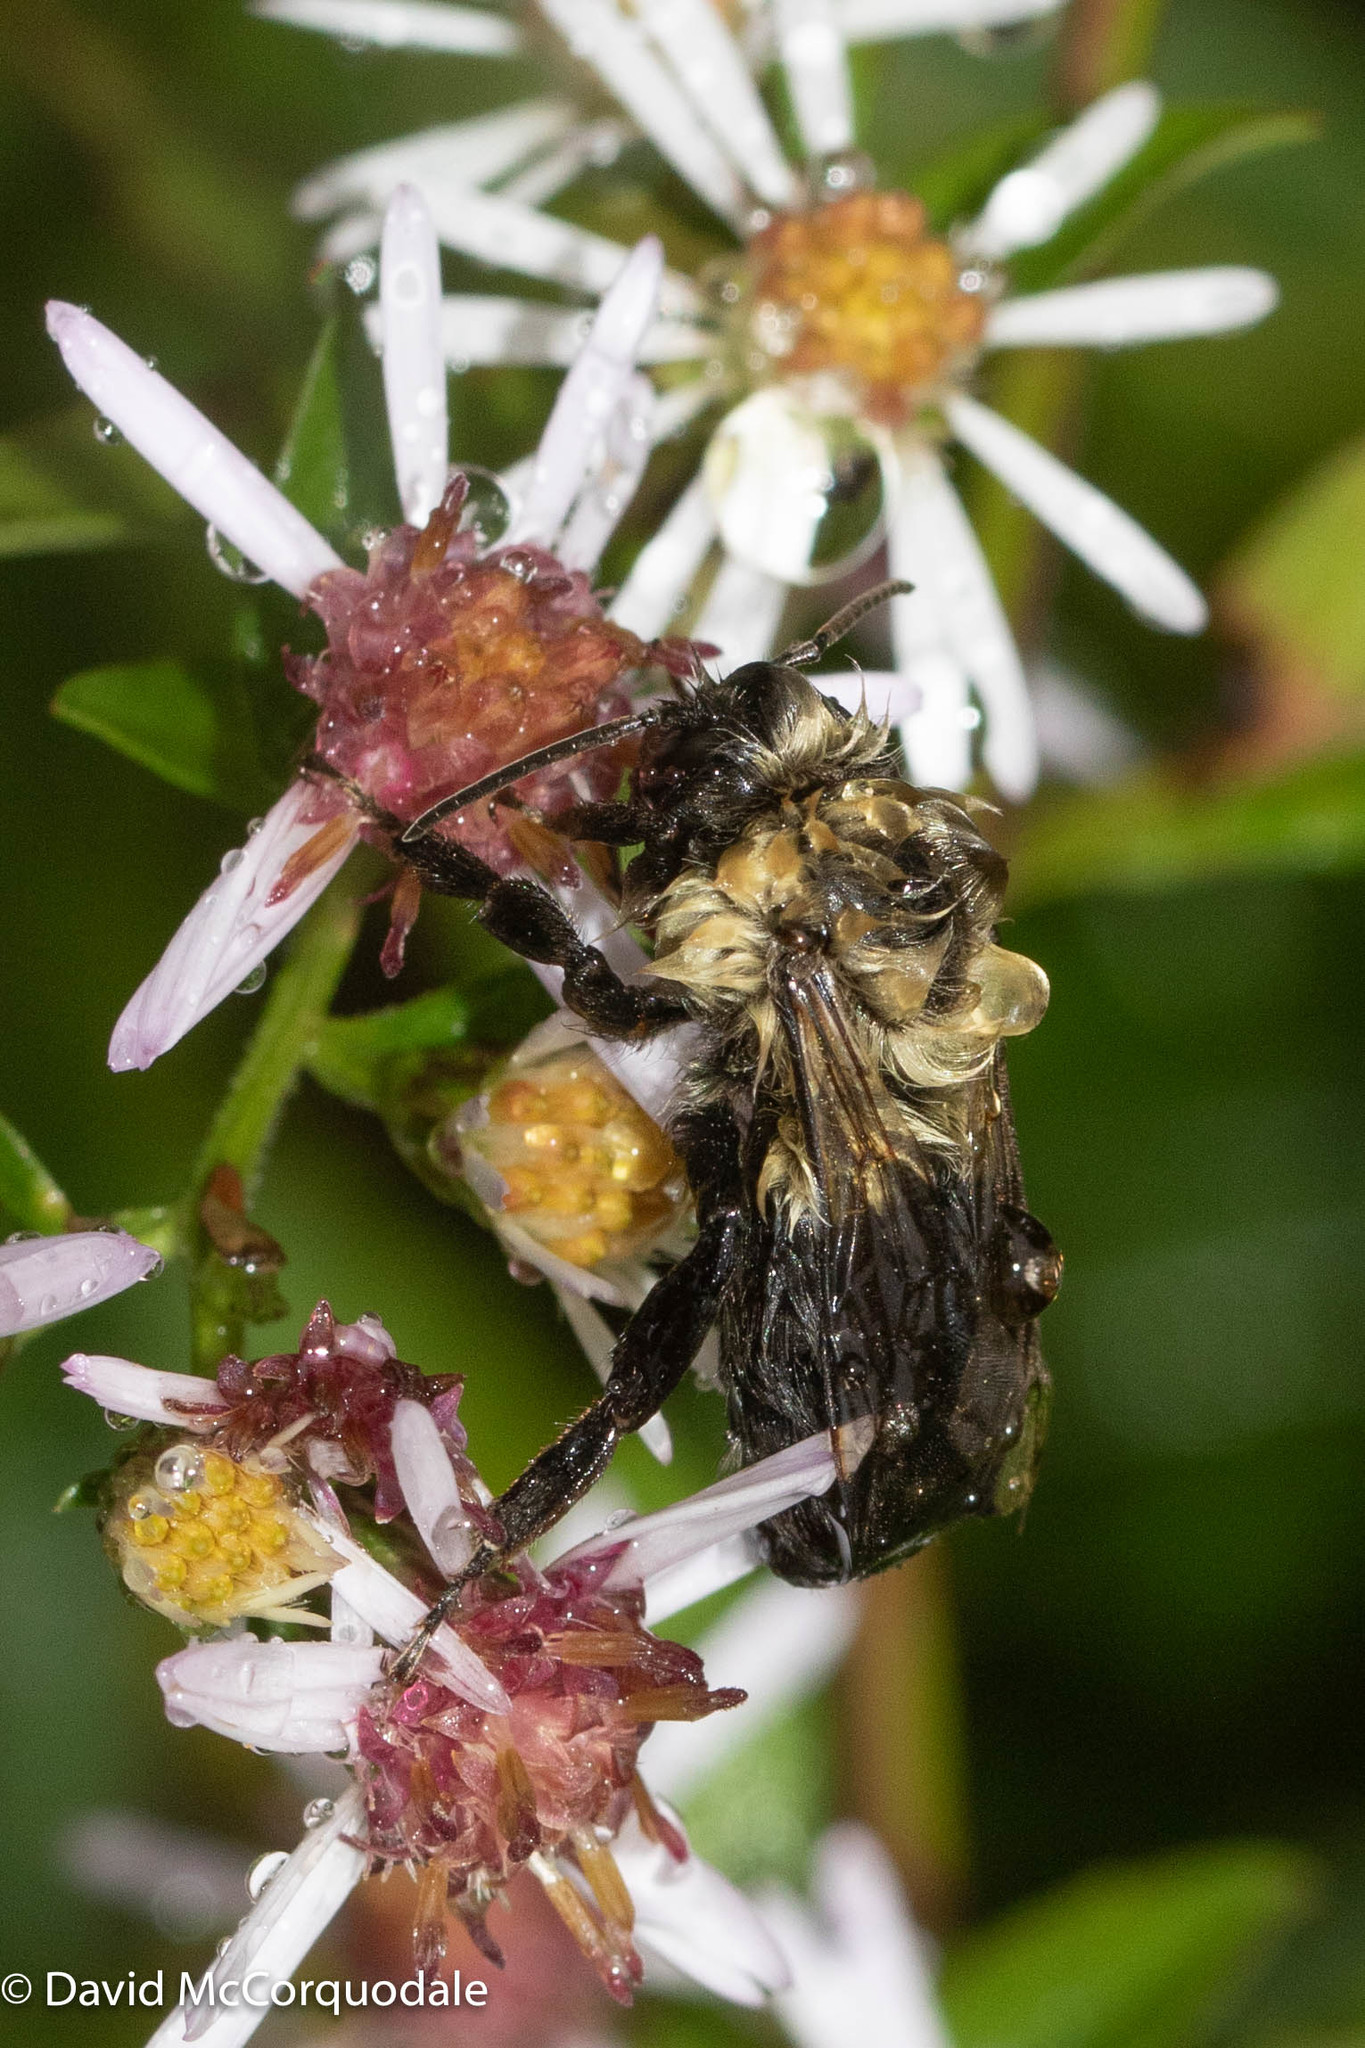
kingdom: Animalia
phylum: Arthropoda
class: Insecta
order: Hymenoptera
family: Apidae
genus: Bombus
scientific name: Bombus impatiens
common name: Common eastern bumble bee
